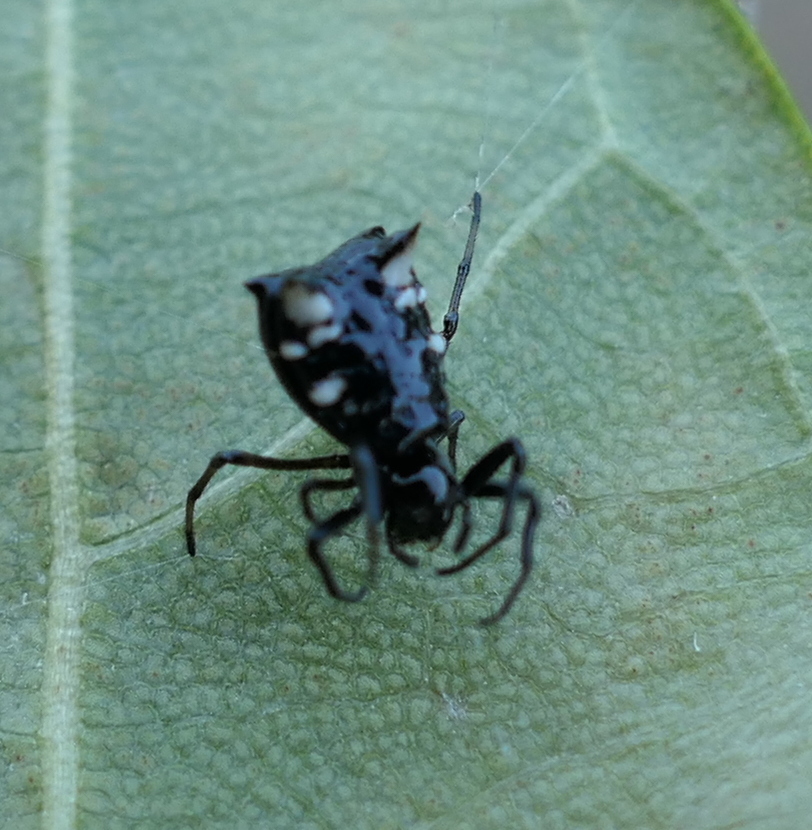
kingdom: Animalia
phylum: Arthropoda
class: Arachnida
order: Araneae
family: Araneidae
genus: Micrathena
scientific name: Micrathena patruelis
